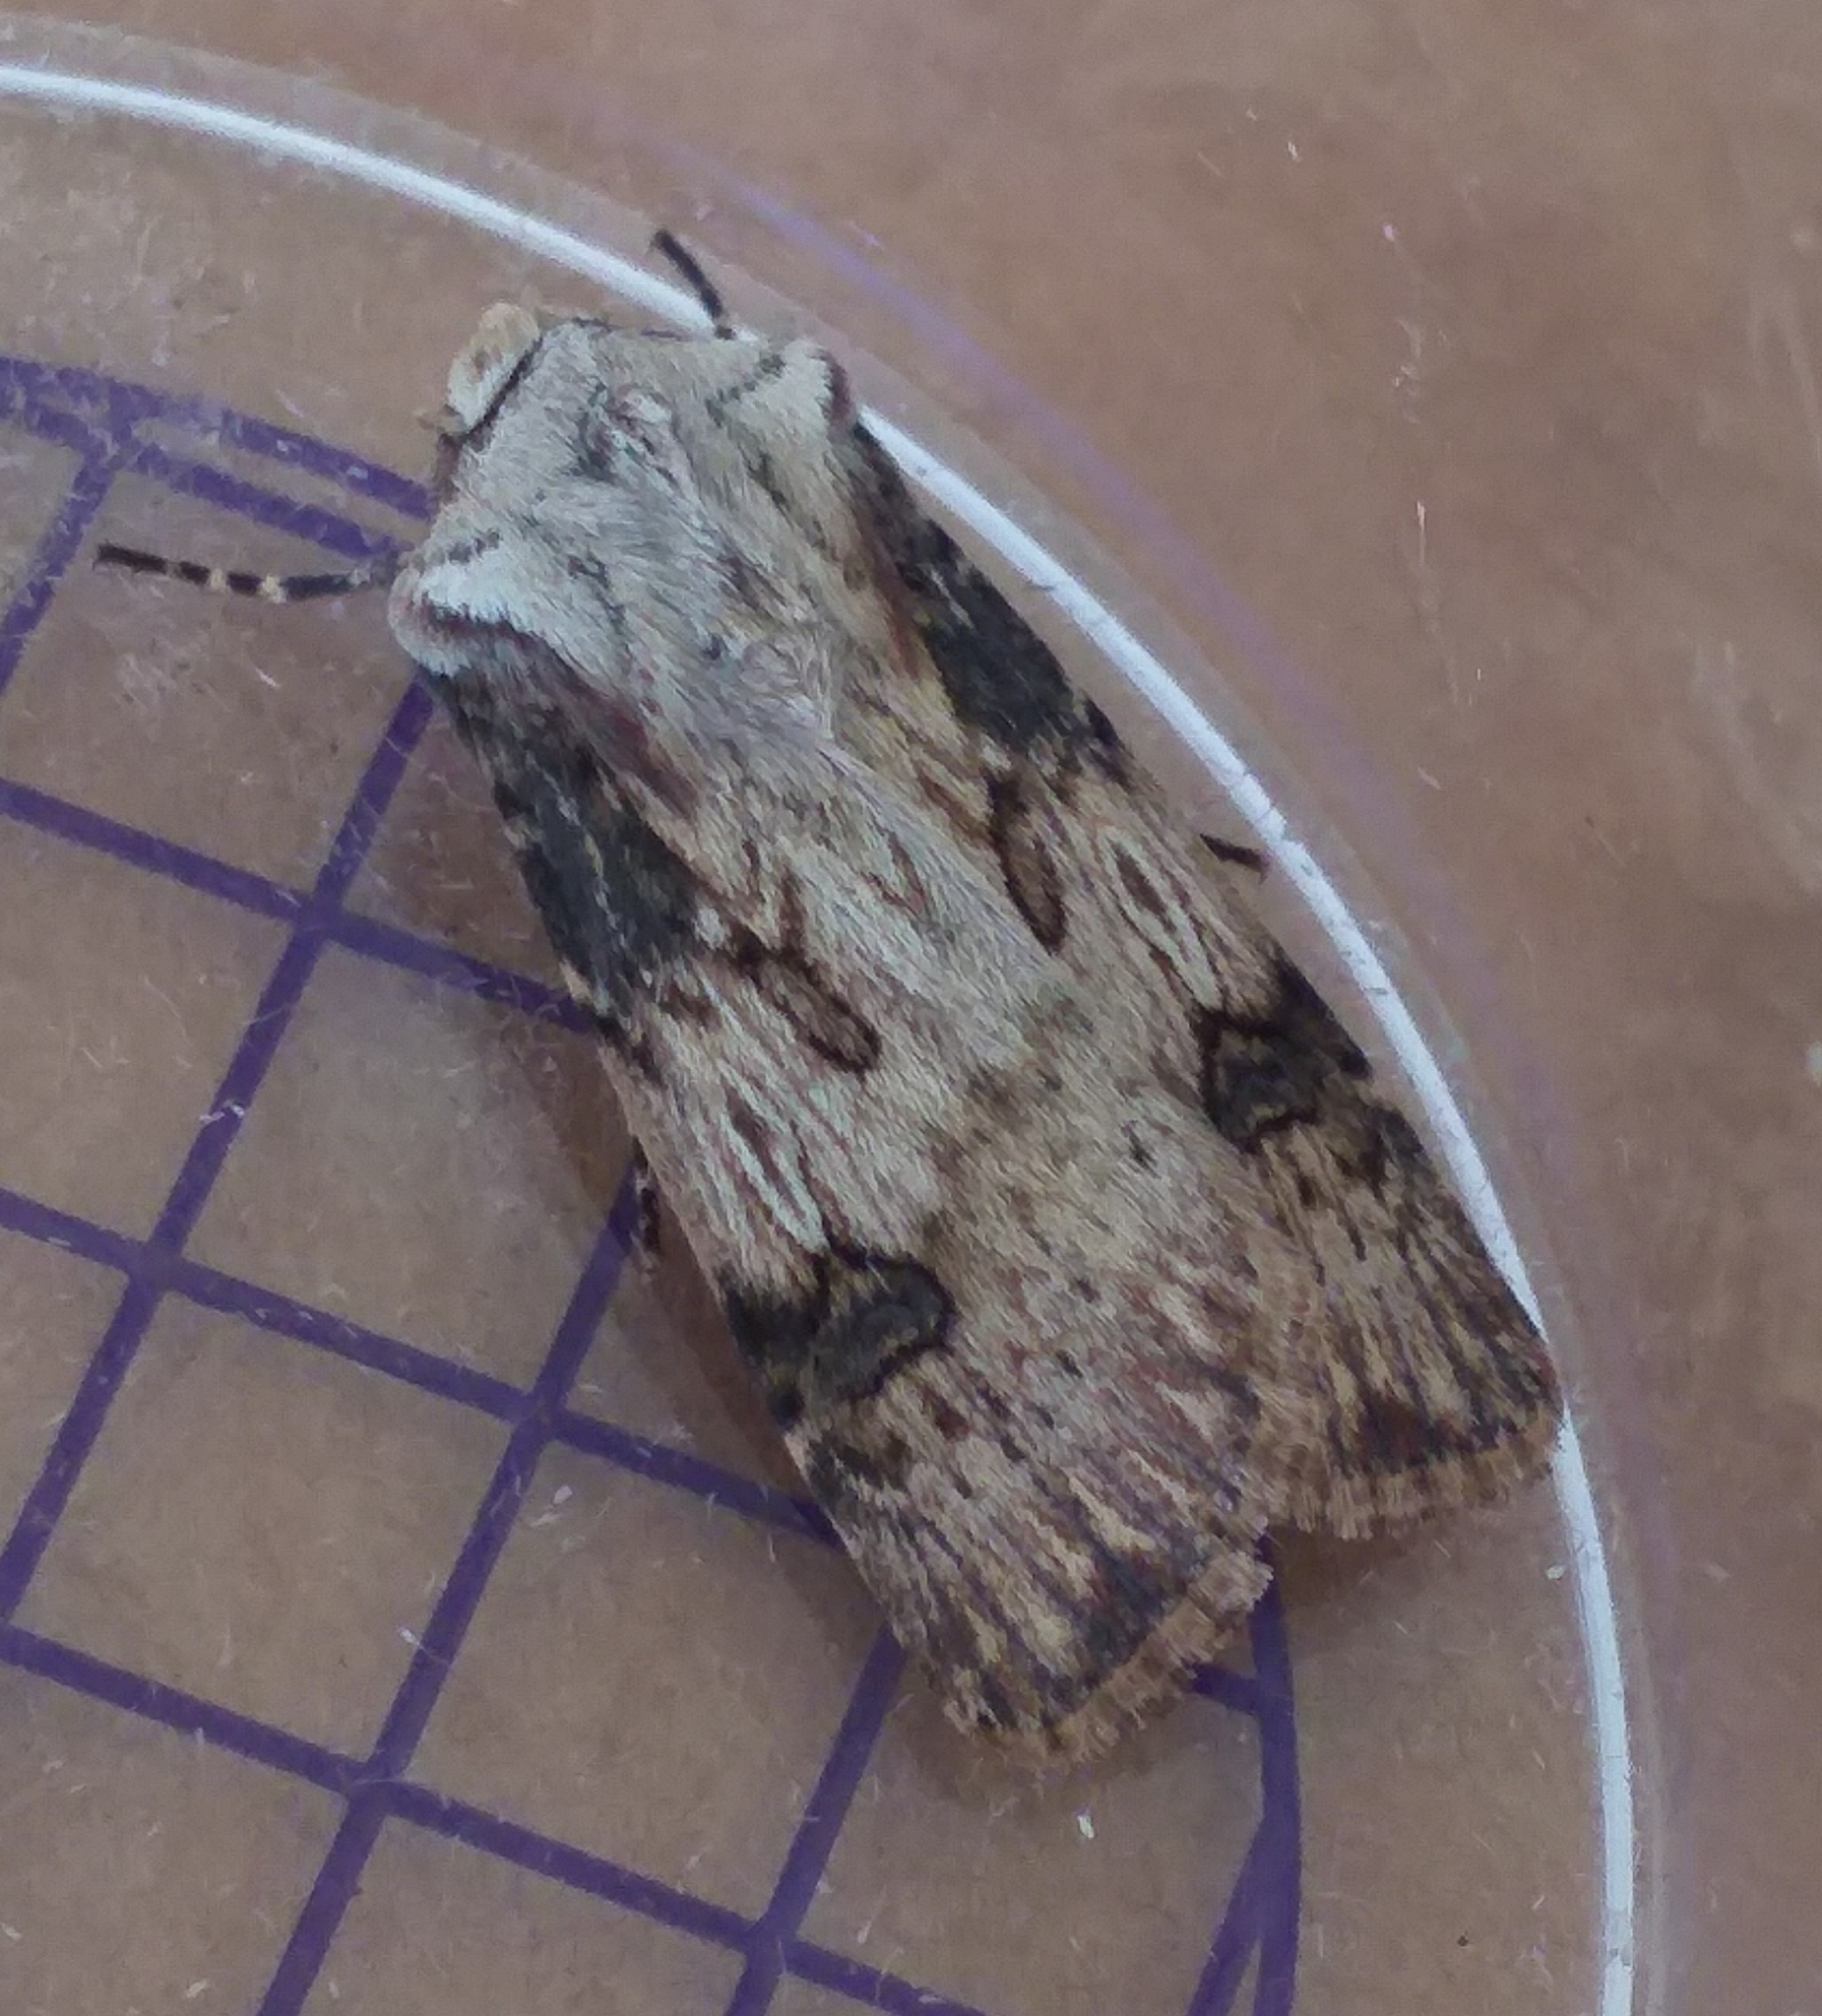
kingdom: Animalia
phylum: Arthropoda
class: Insecta
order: Lepidoptera
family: Noctuidae
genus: Agrotis
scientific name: Agrotis puta
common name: Shuttle-shaped dart
